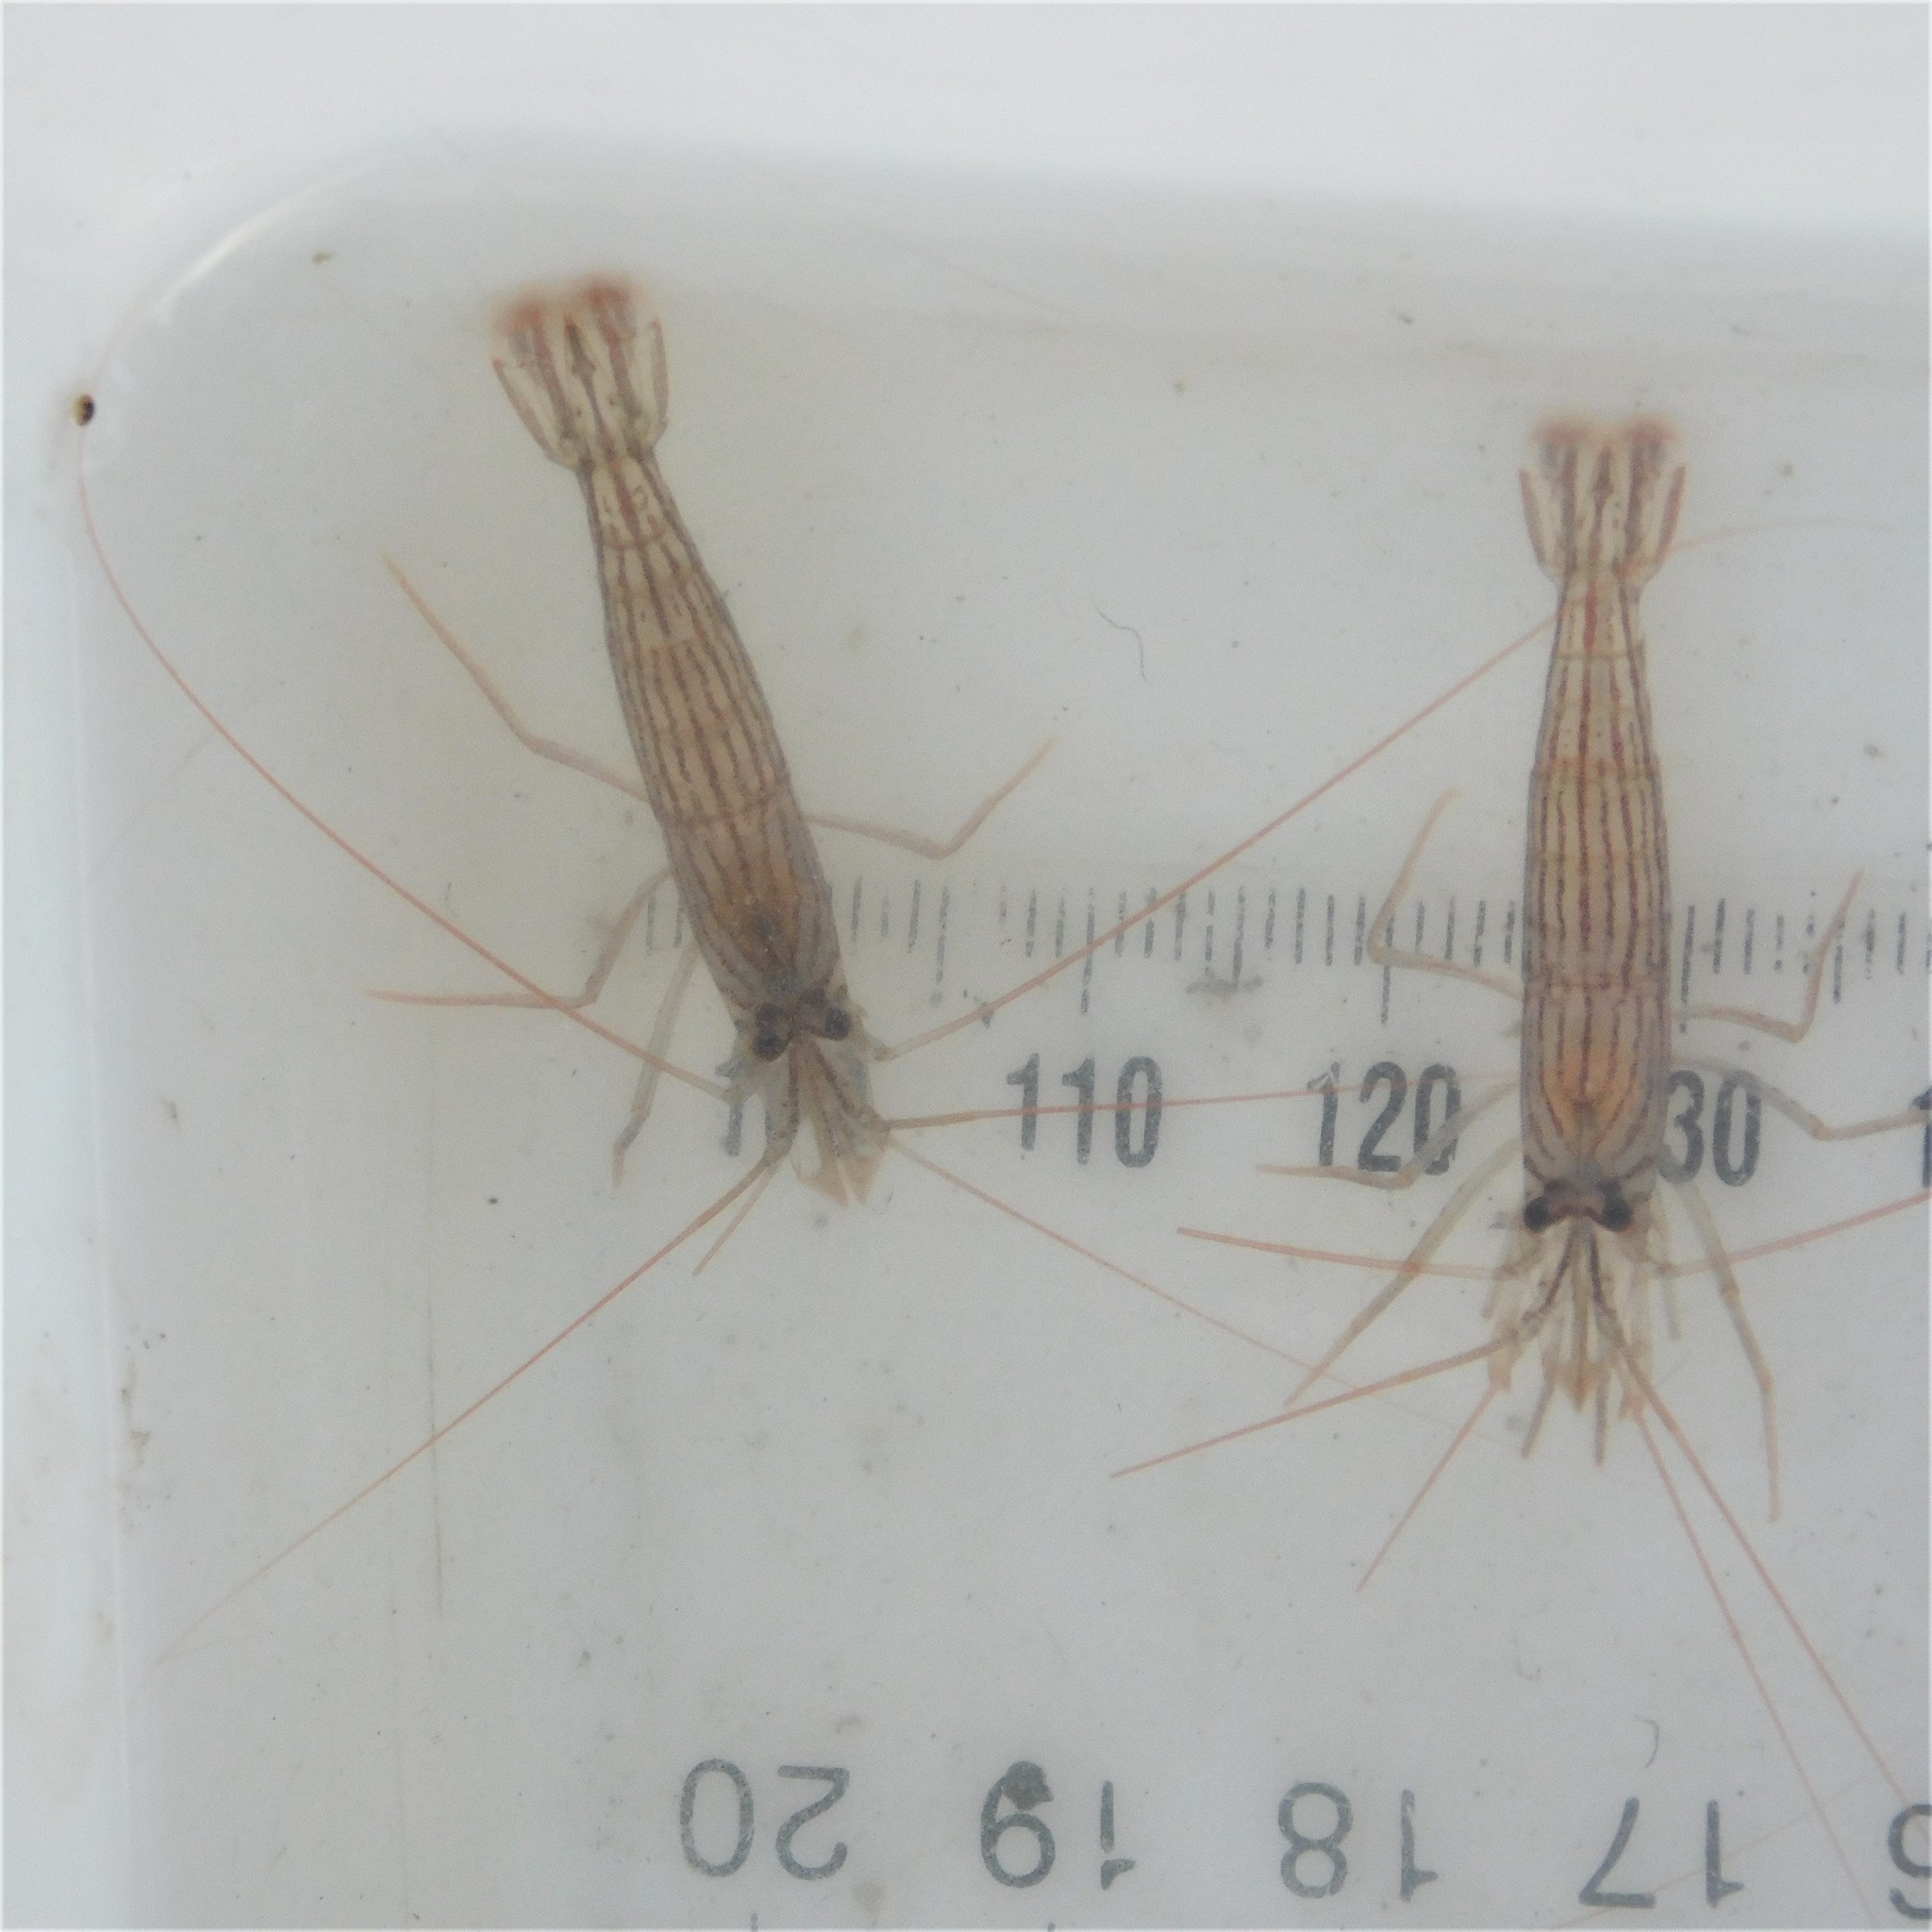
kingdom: Animalia
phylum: Arthropoda
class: Malacostraca
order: Decapoda
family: Lysmatidae
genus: Lysmata
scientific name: Lysmata vittata
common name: Indian lined shrimp
